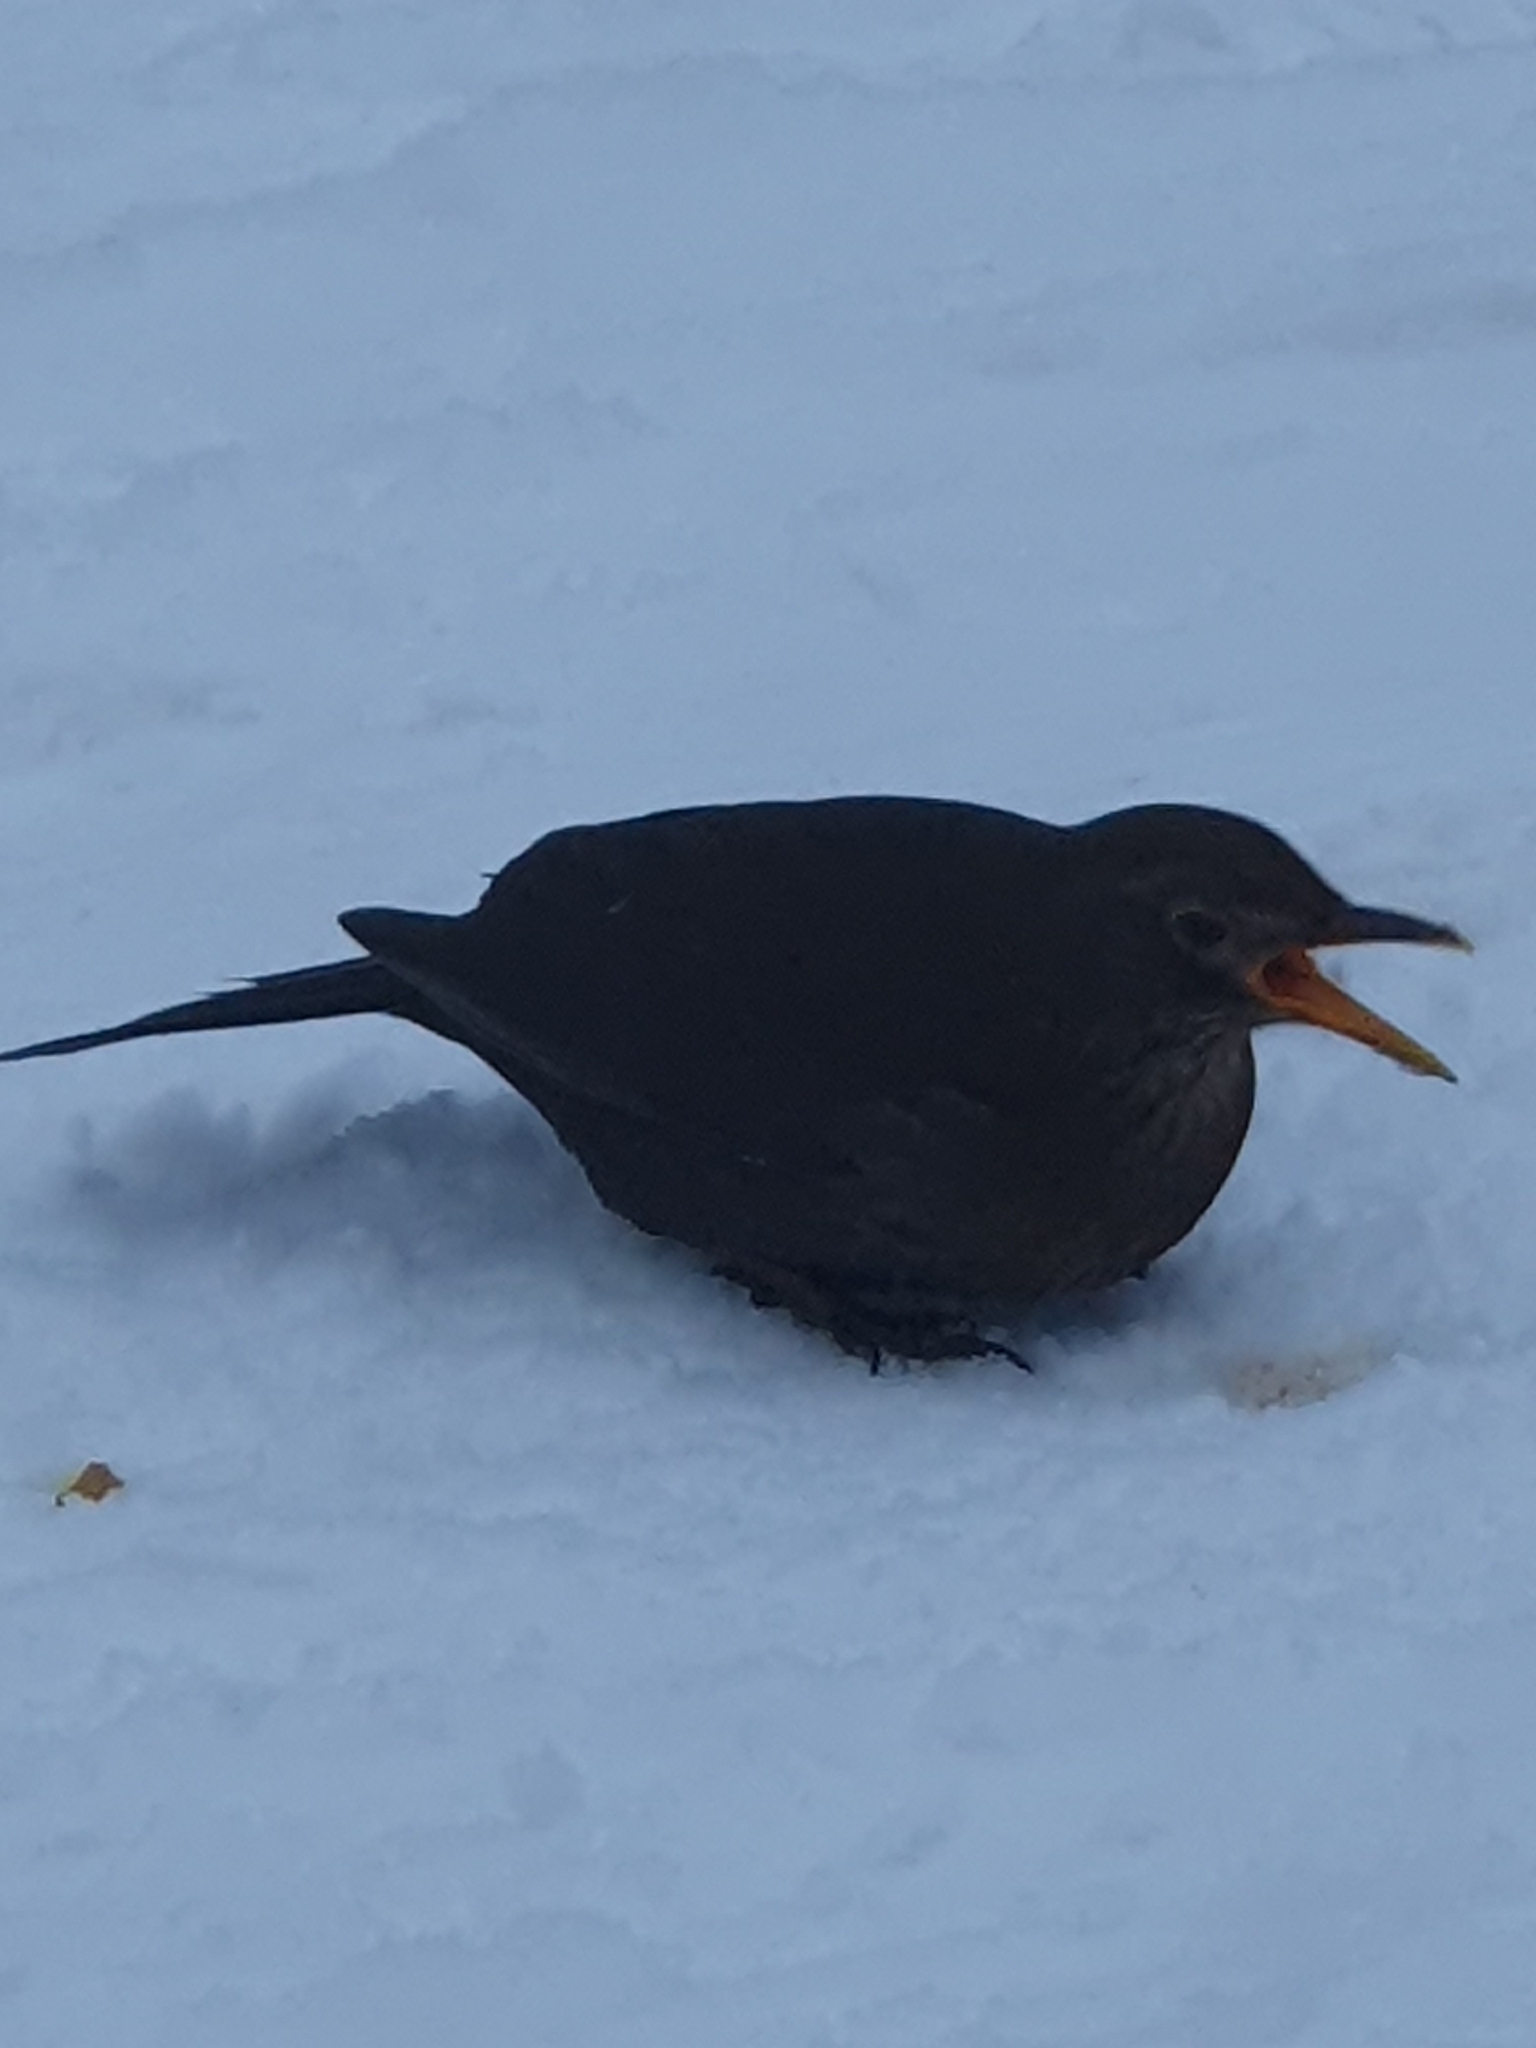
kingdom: Animalia
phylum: Chordata
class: Aves
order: Passeriformes
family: Turdidae
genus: Turdus
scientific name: Turdus merula
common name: Common blackbird
